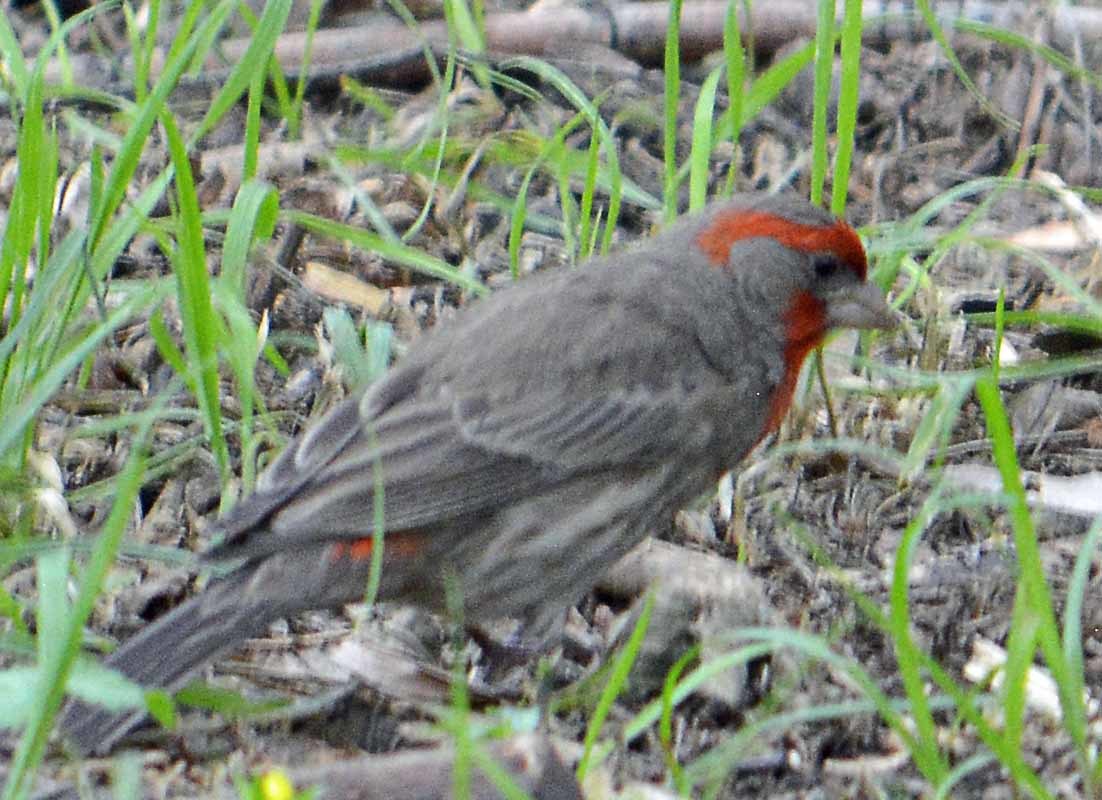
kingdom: Animalia
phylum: Chordata
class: Aves
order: Passeriformes
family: Fringillidae
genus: Haemorhous
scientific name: Haemorhous mexicanus
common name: House finch
